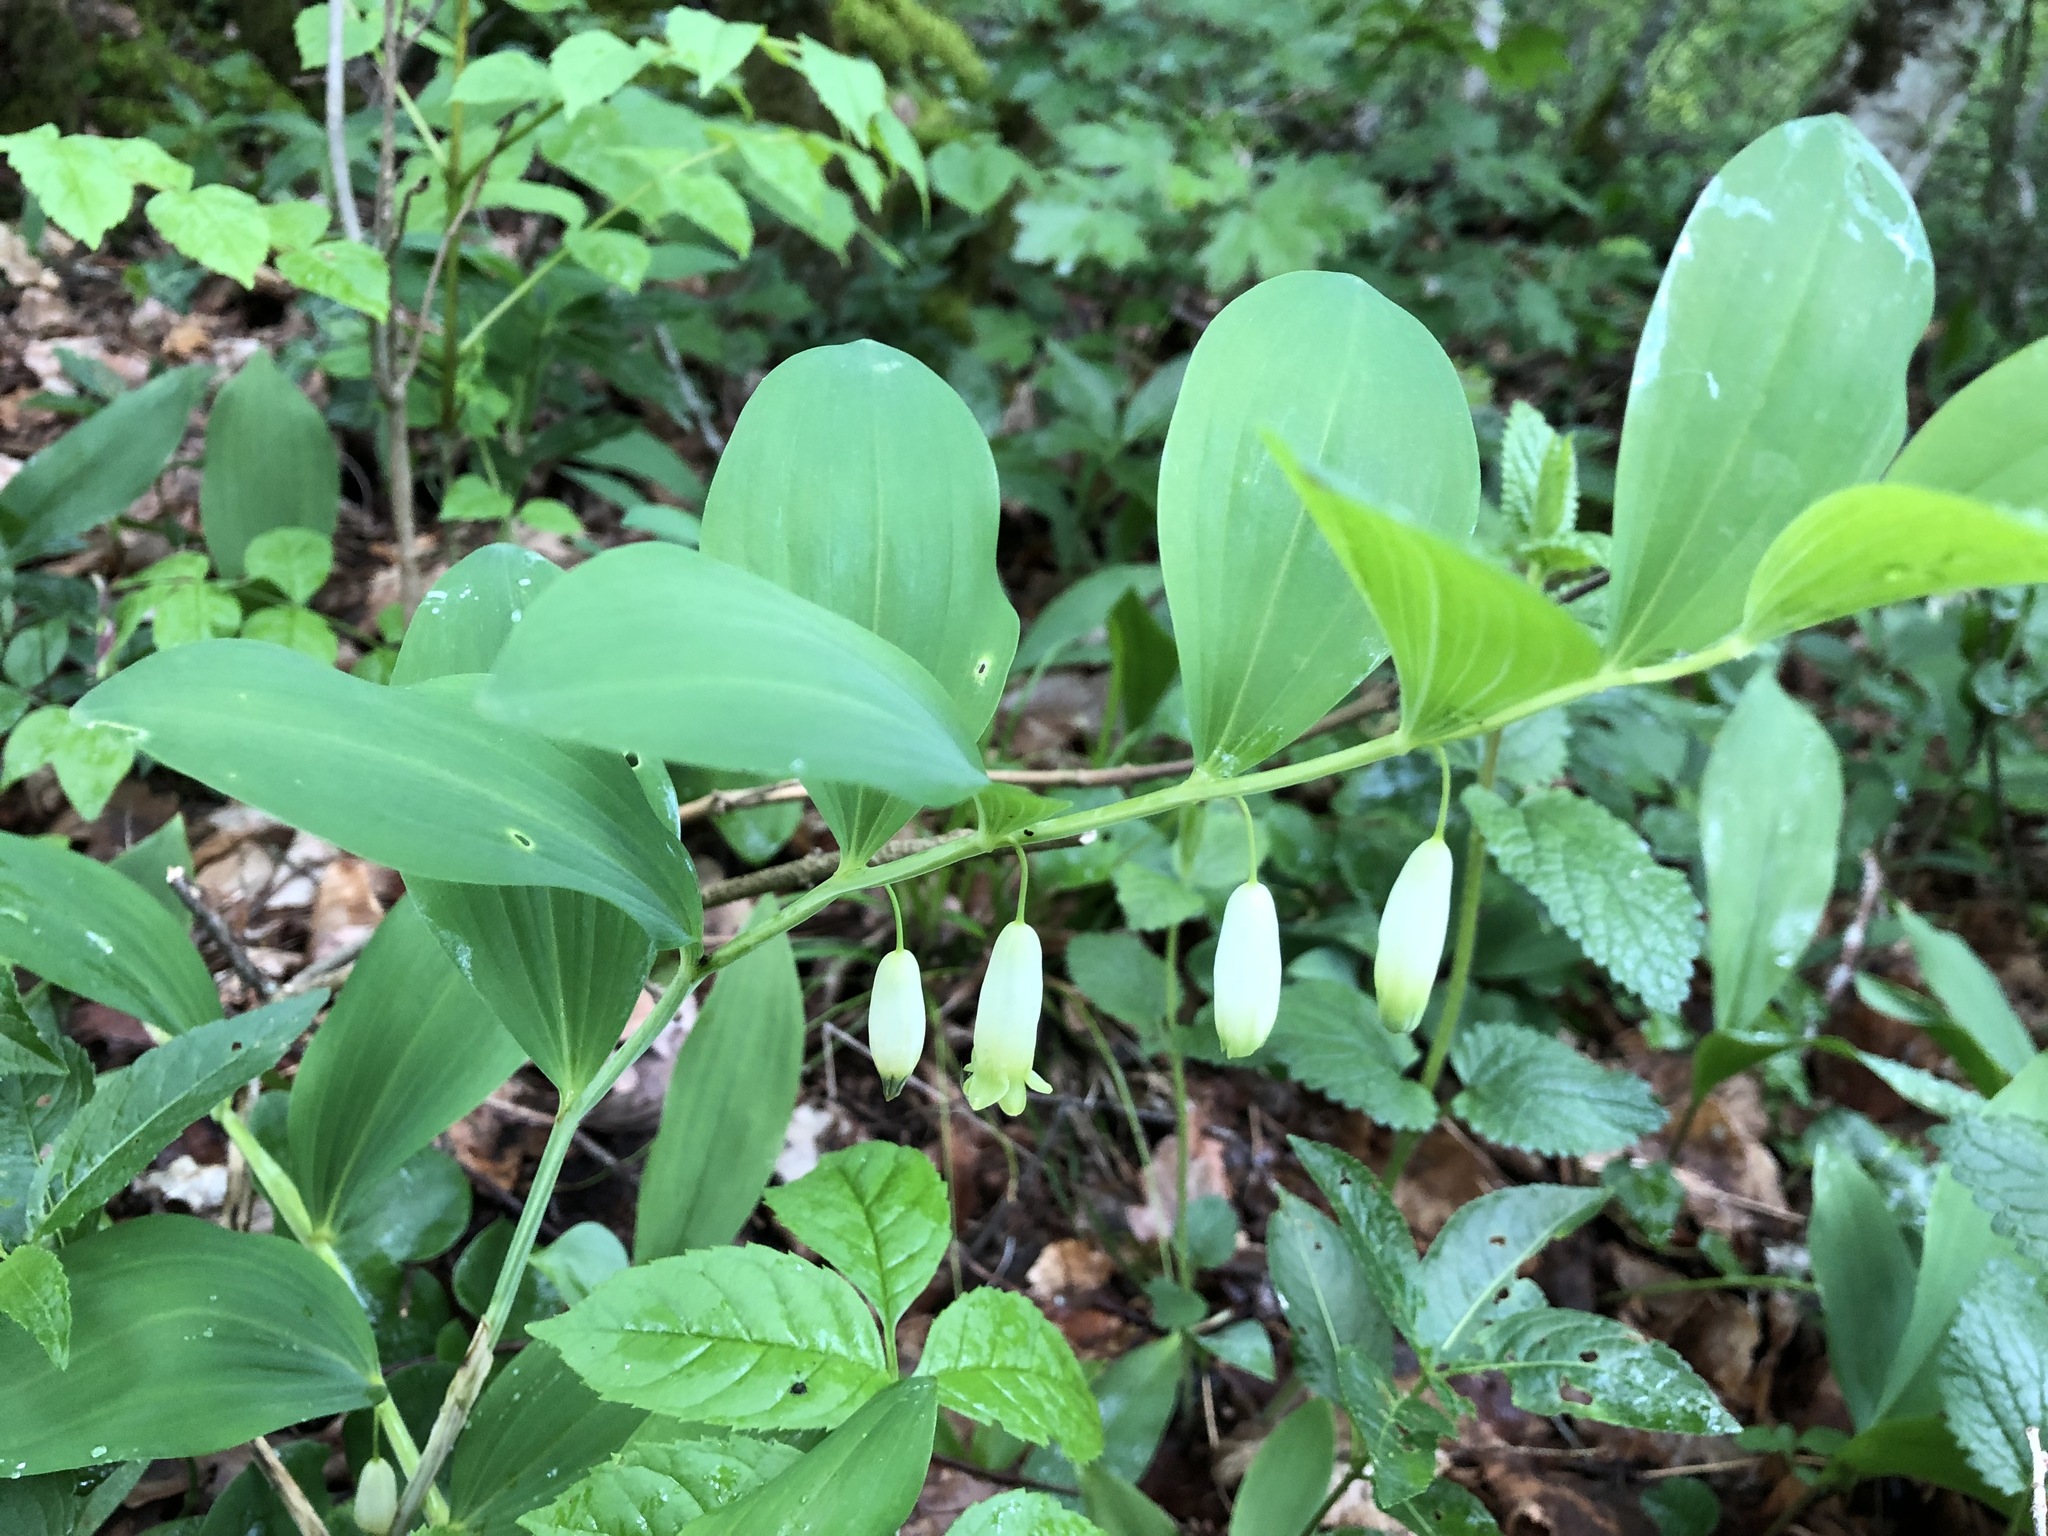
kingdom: Plantae
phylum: Tracheophyta
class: Liliopsida
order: Asparagales
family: Asparagaceae
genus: Polygonatum
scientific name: Polygonatum odoratum
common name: Angular solomon's-seal
